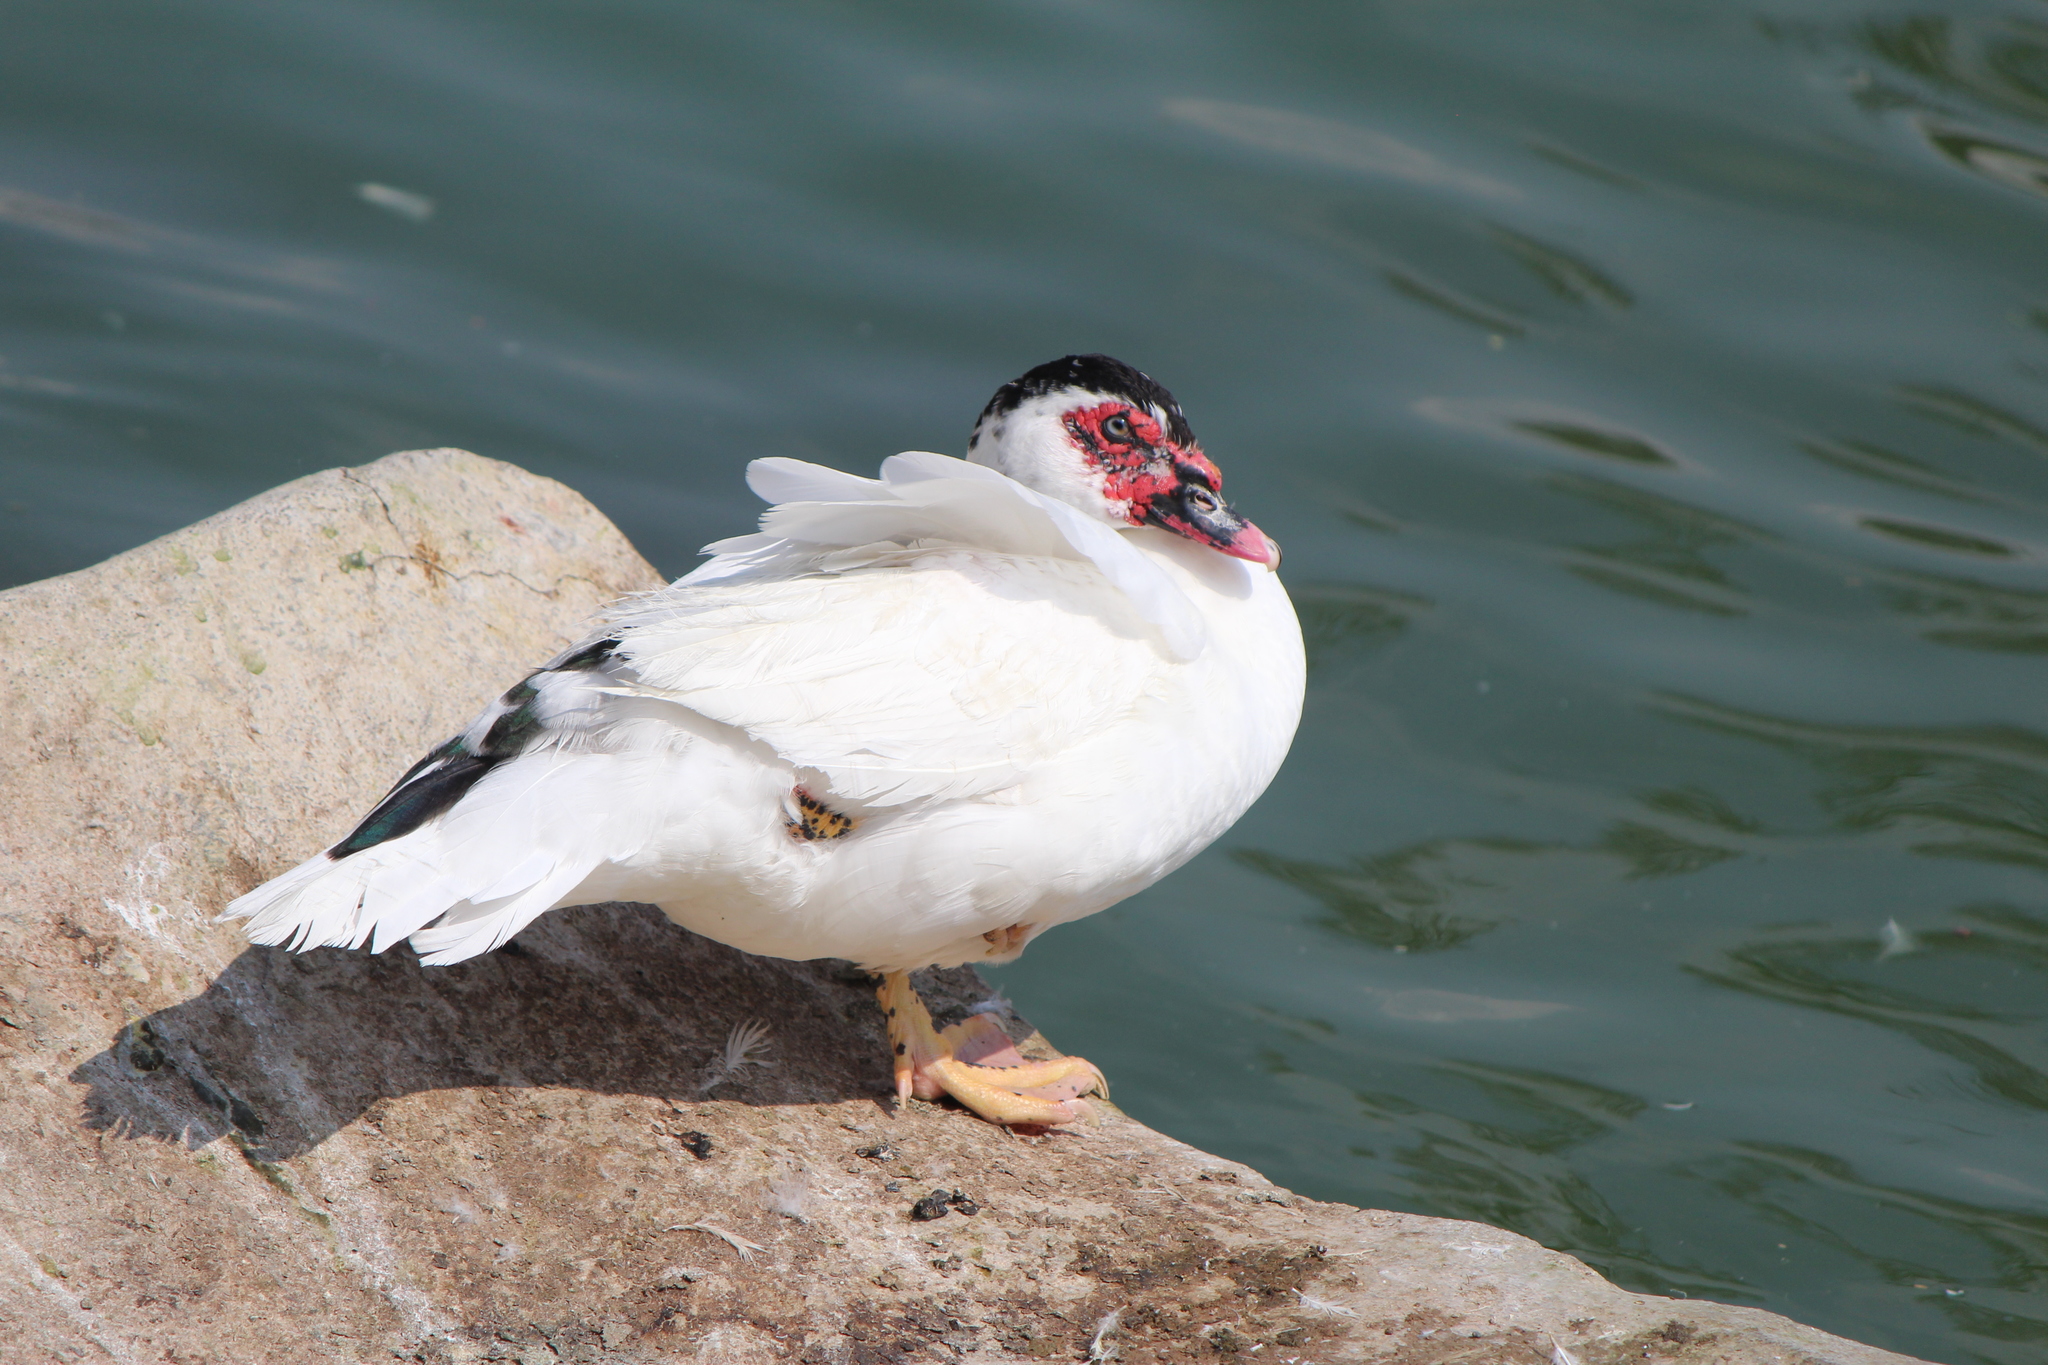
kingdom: Animalia
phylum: Chordata
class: Aves
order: Anseriformes
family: Anatidae
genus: Cairina
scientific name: Cairina moschata
